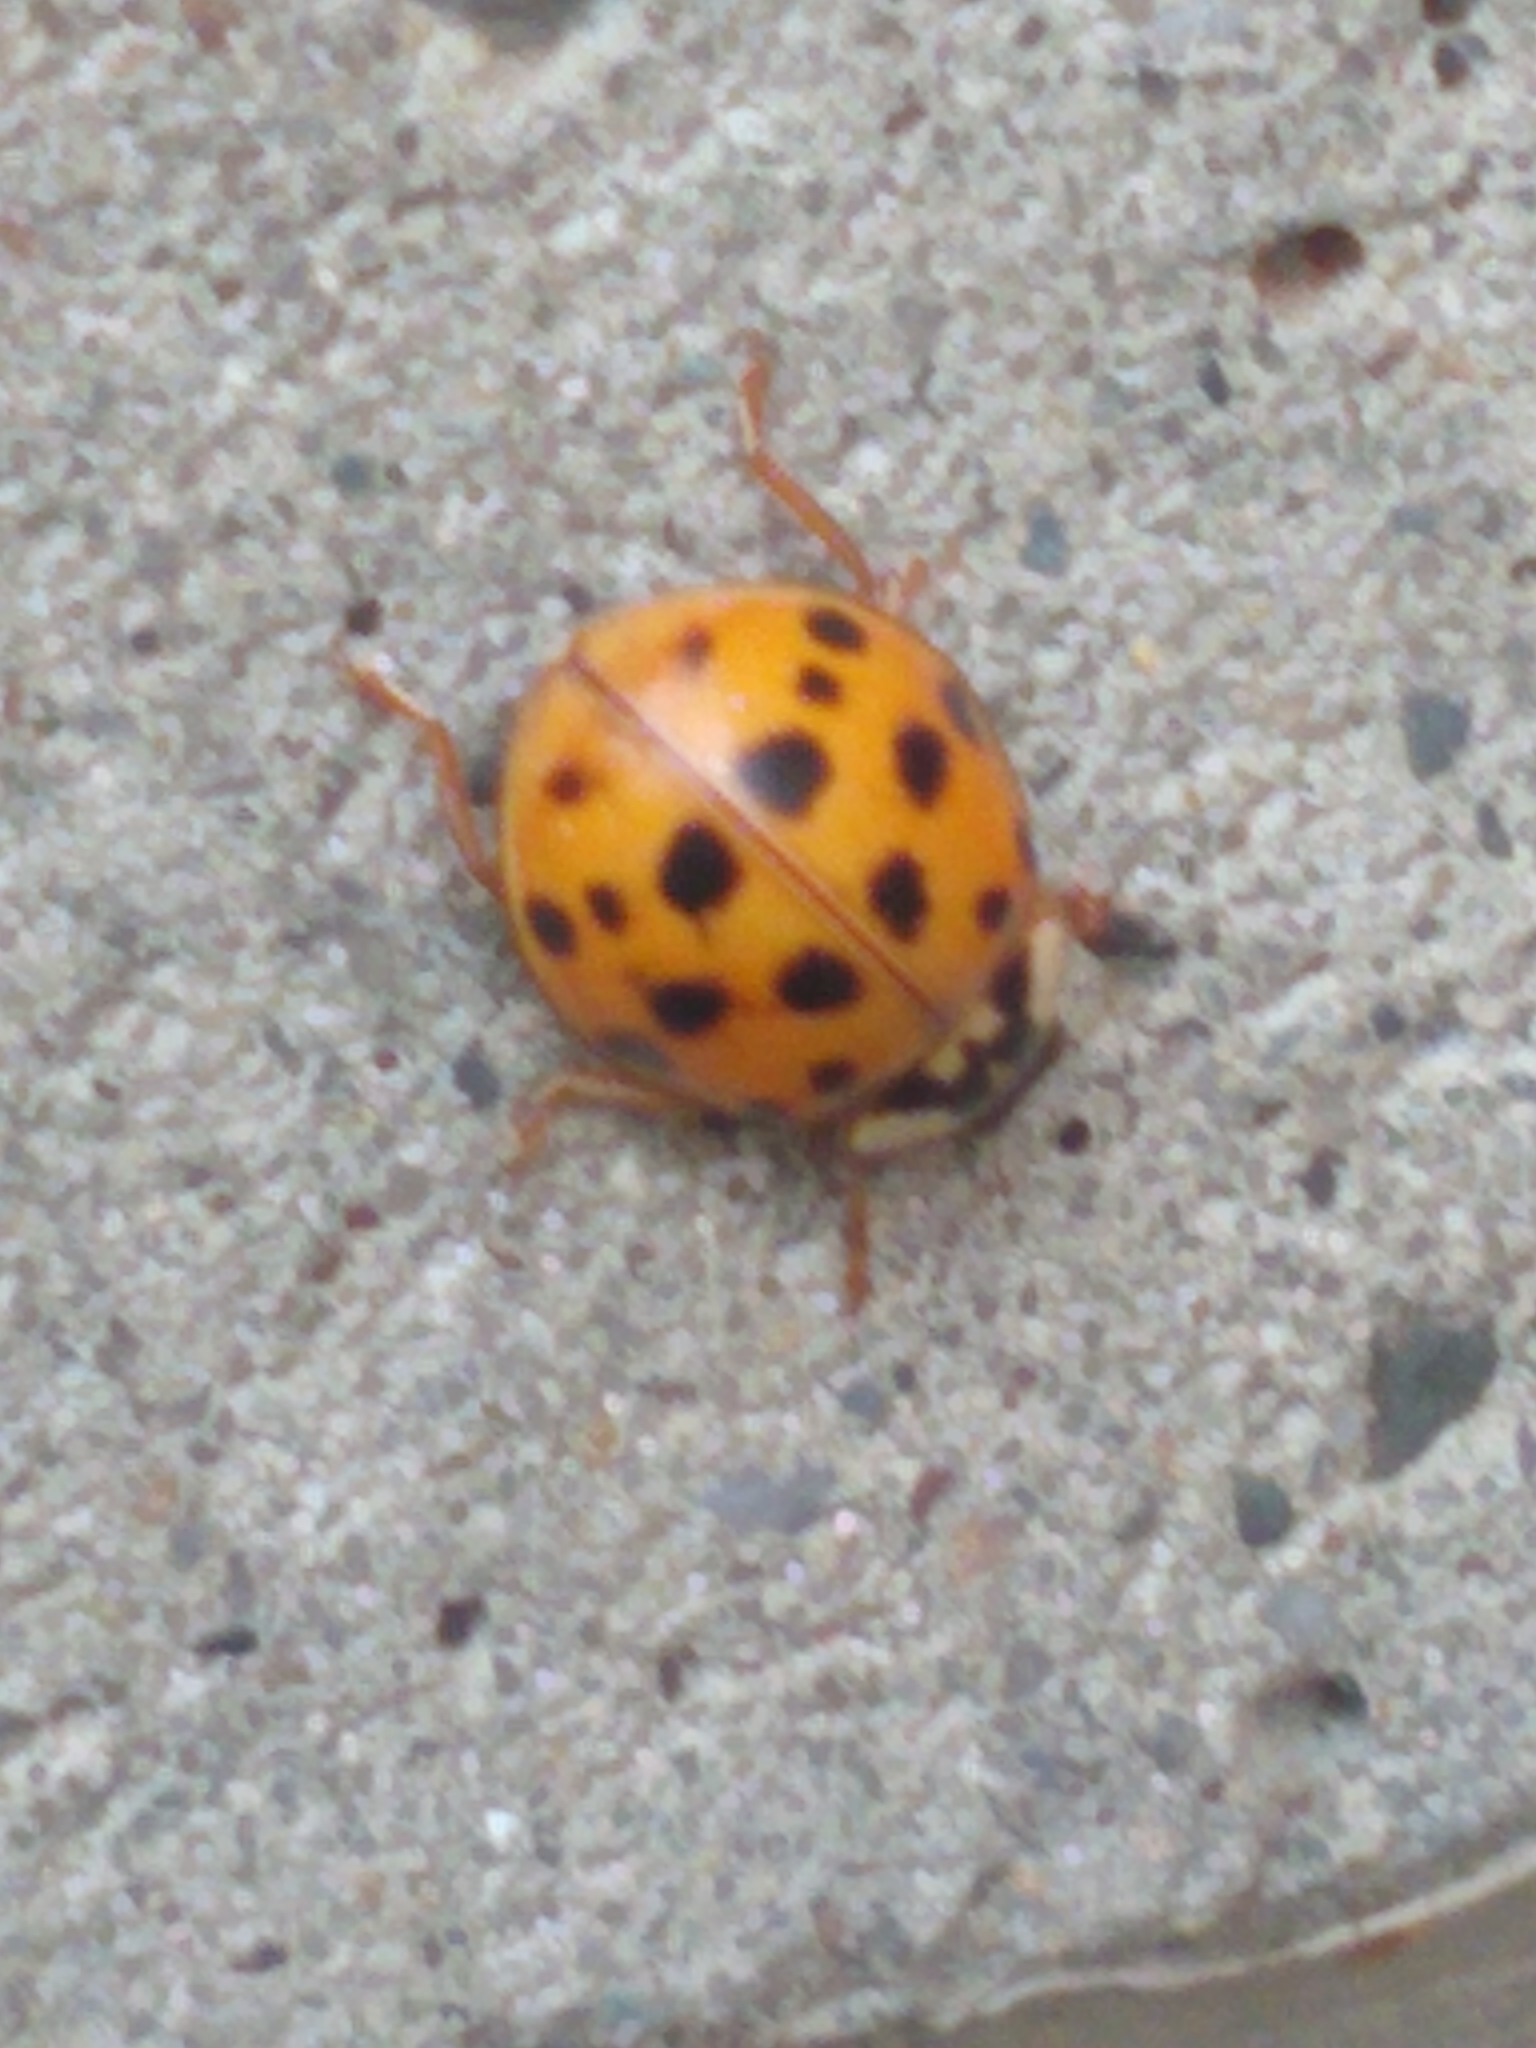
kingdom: Animalia
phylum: Arthropoda
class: Insecta
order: Coleoptera
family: Coccinellidae
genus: Harmonia
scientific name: Harmonia axyridis
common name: Harlequin ladybird
